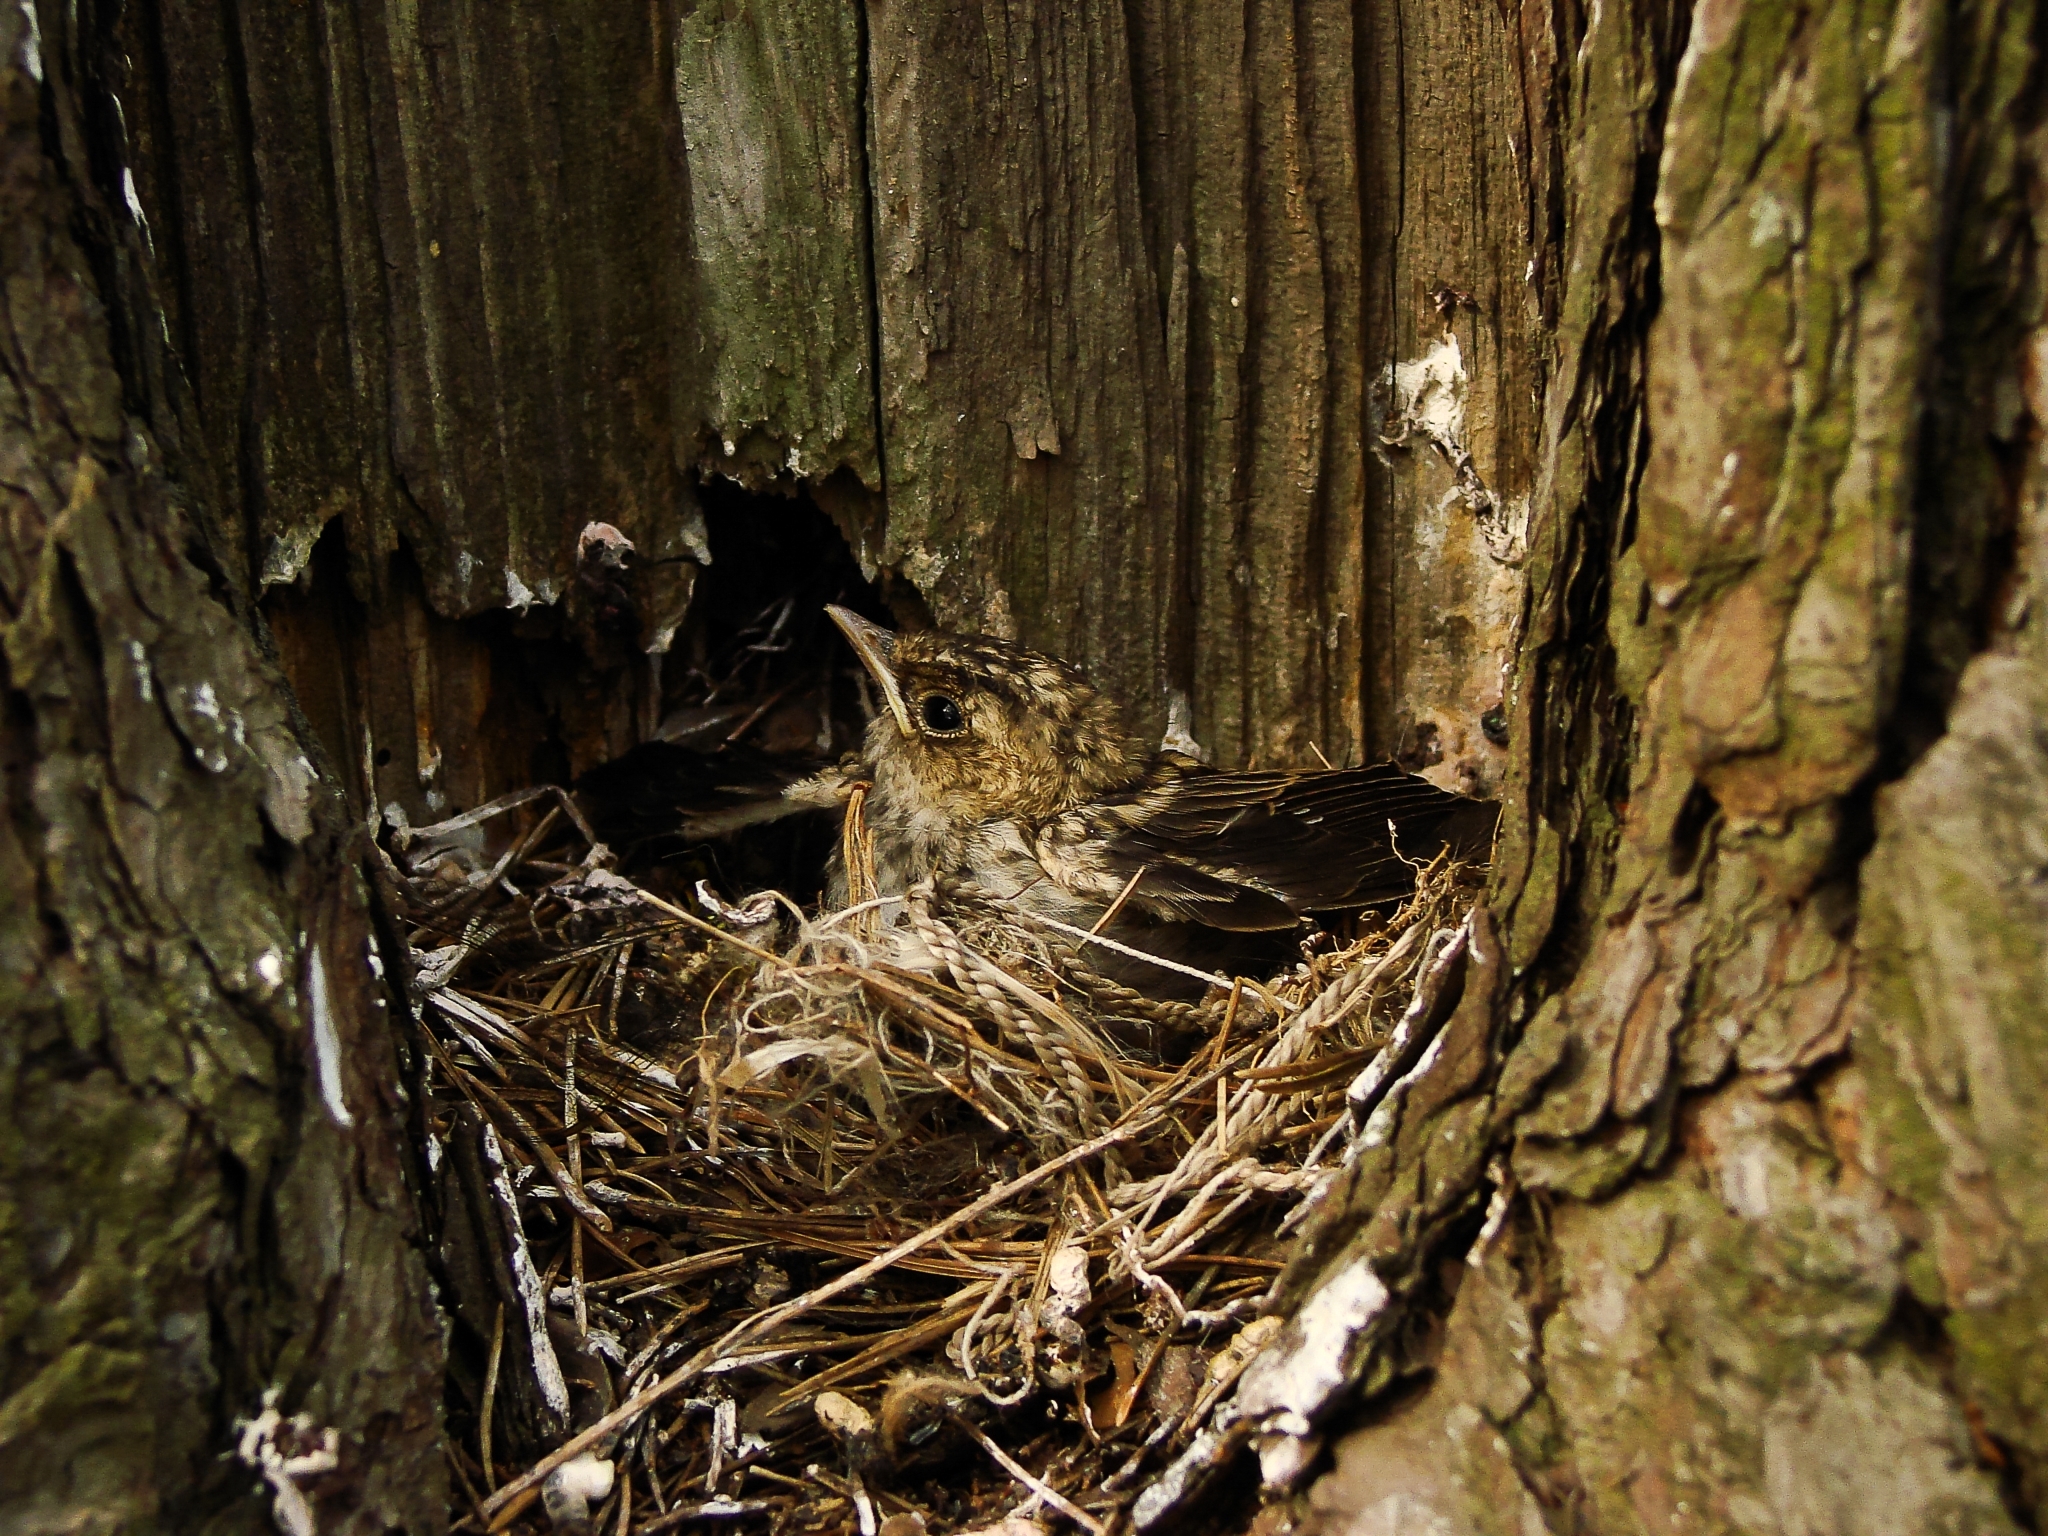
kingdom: Animalia
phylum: Chordata
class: Aves
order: Passeriformes
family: Muscicapidae
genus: Muscicapa
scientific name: Muscicapa striata
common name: Spotted flycatcher
